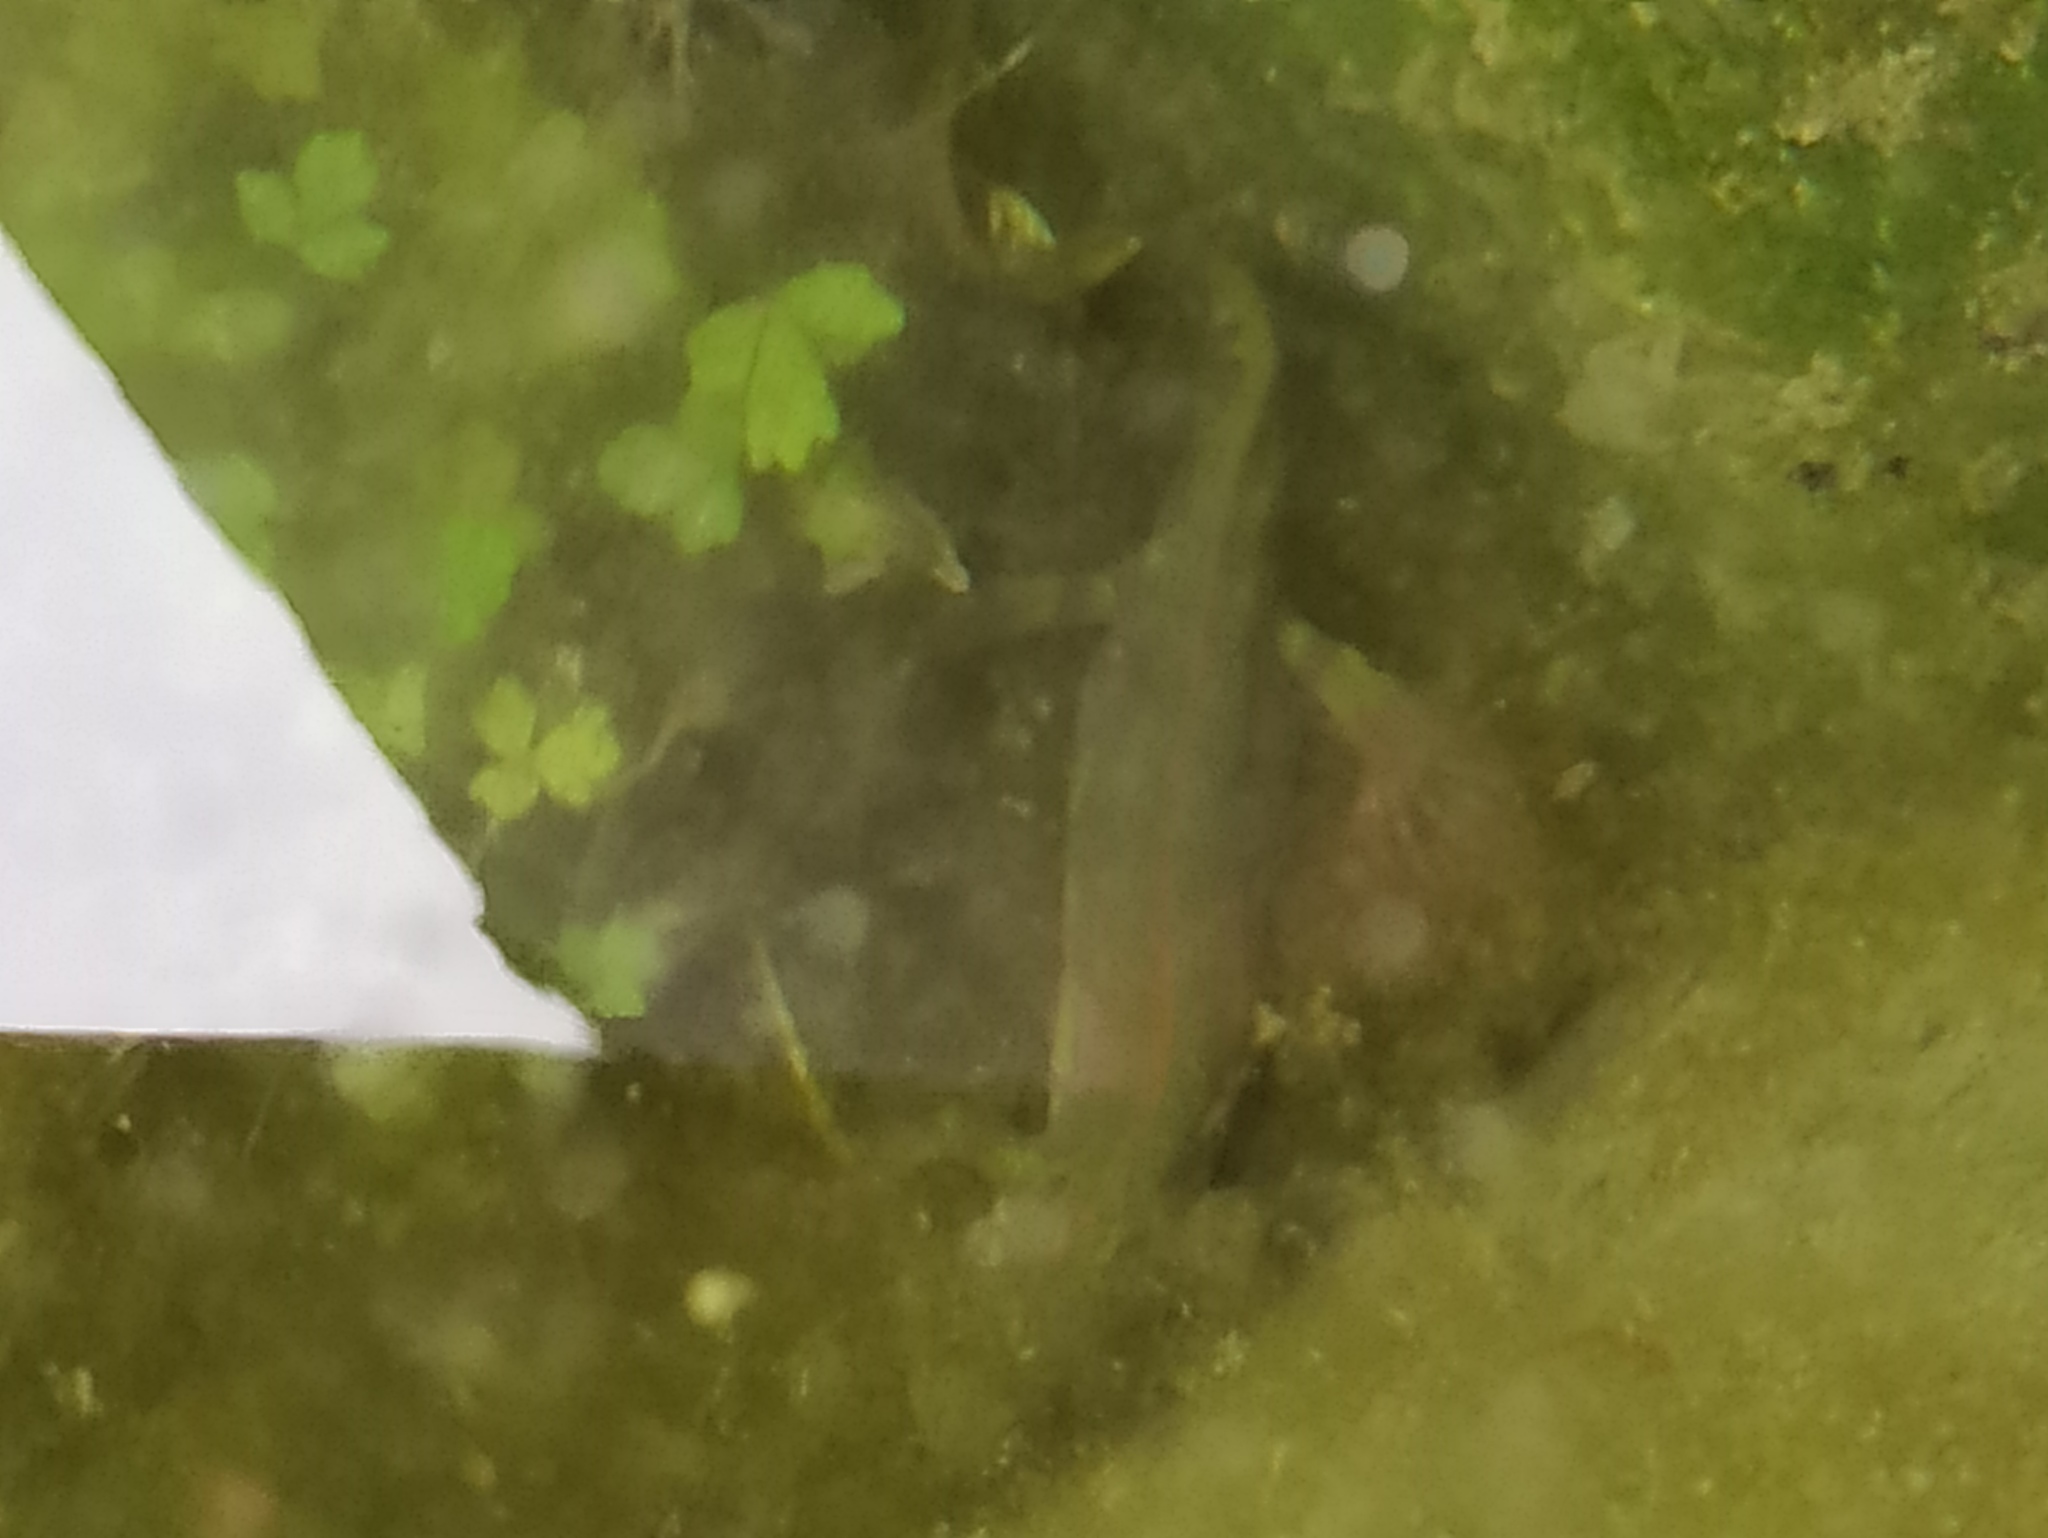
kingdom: Animalia
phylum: Chordata
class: Amphibia
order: Caudata
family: Salamandridae
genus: Triturus
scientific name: Triturus marmoratus
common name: Marbled newt
